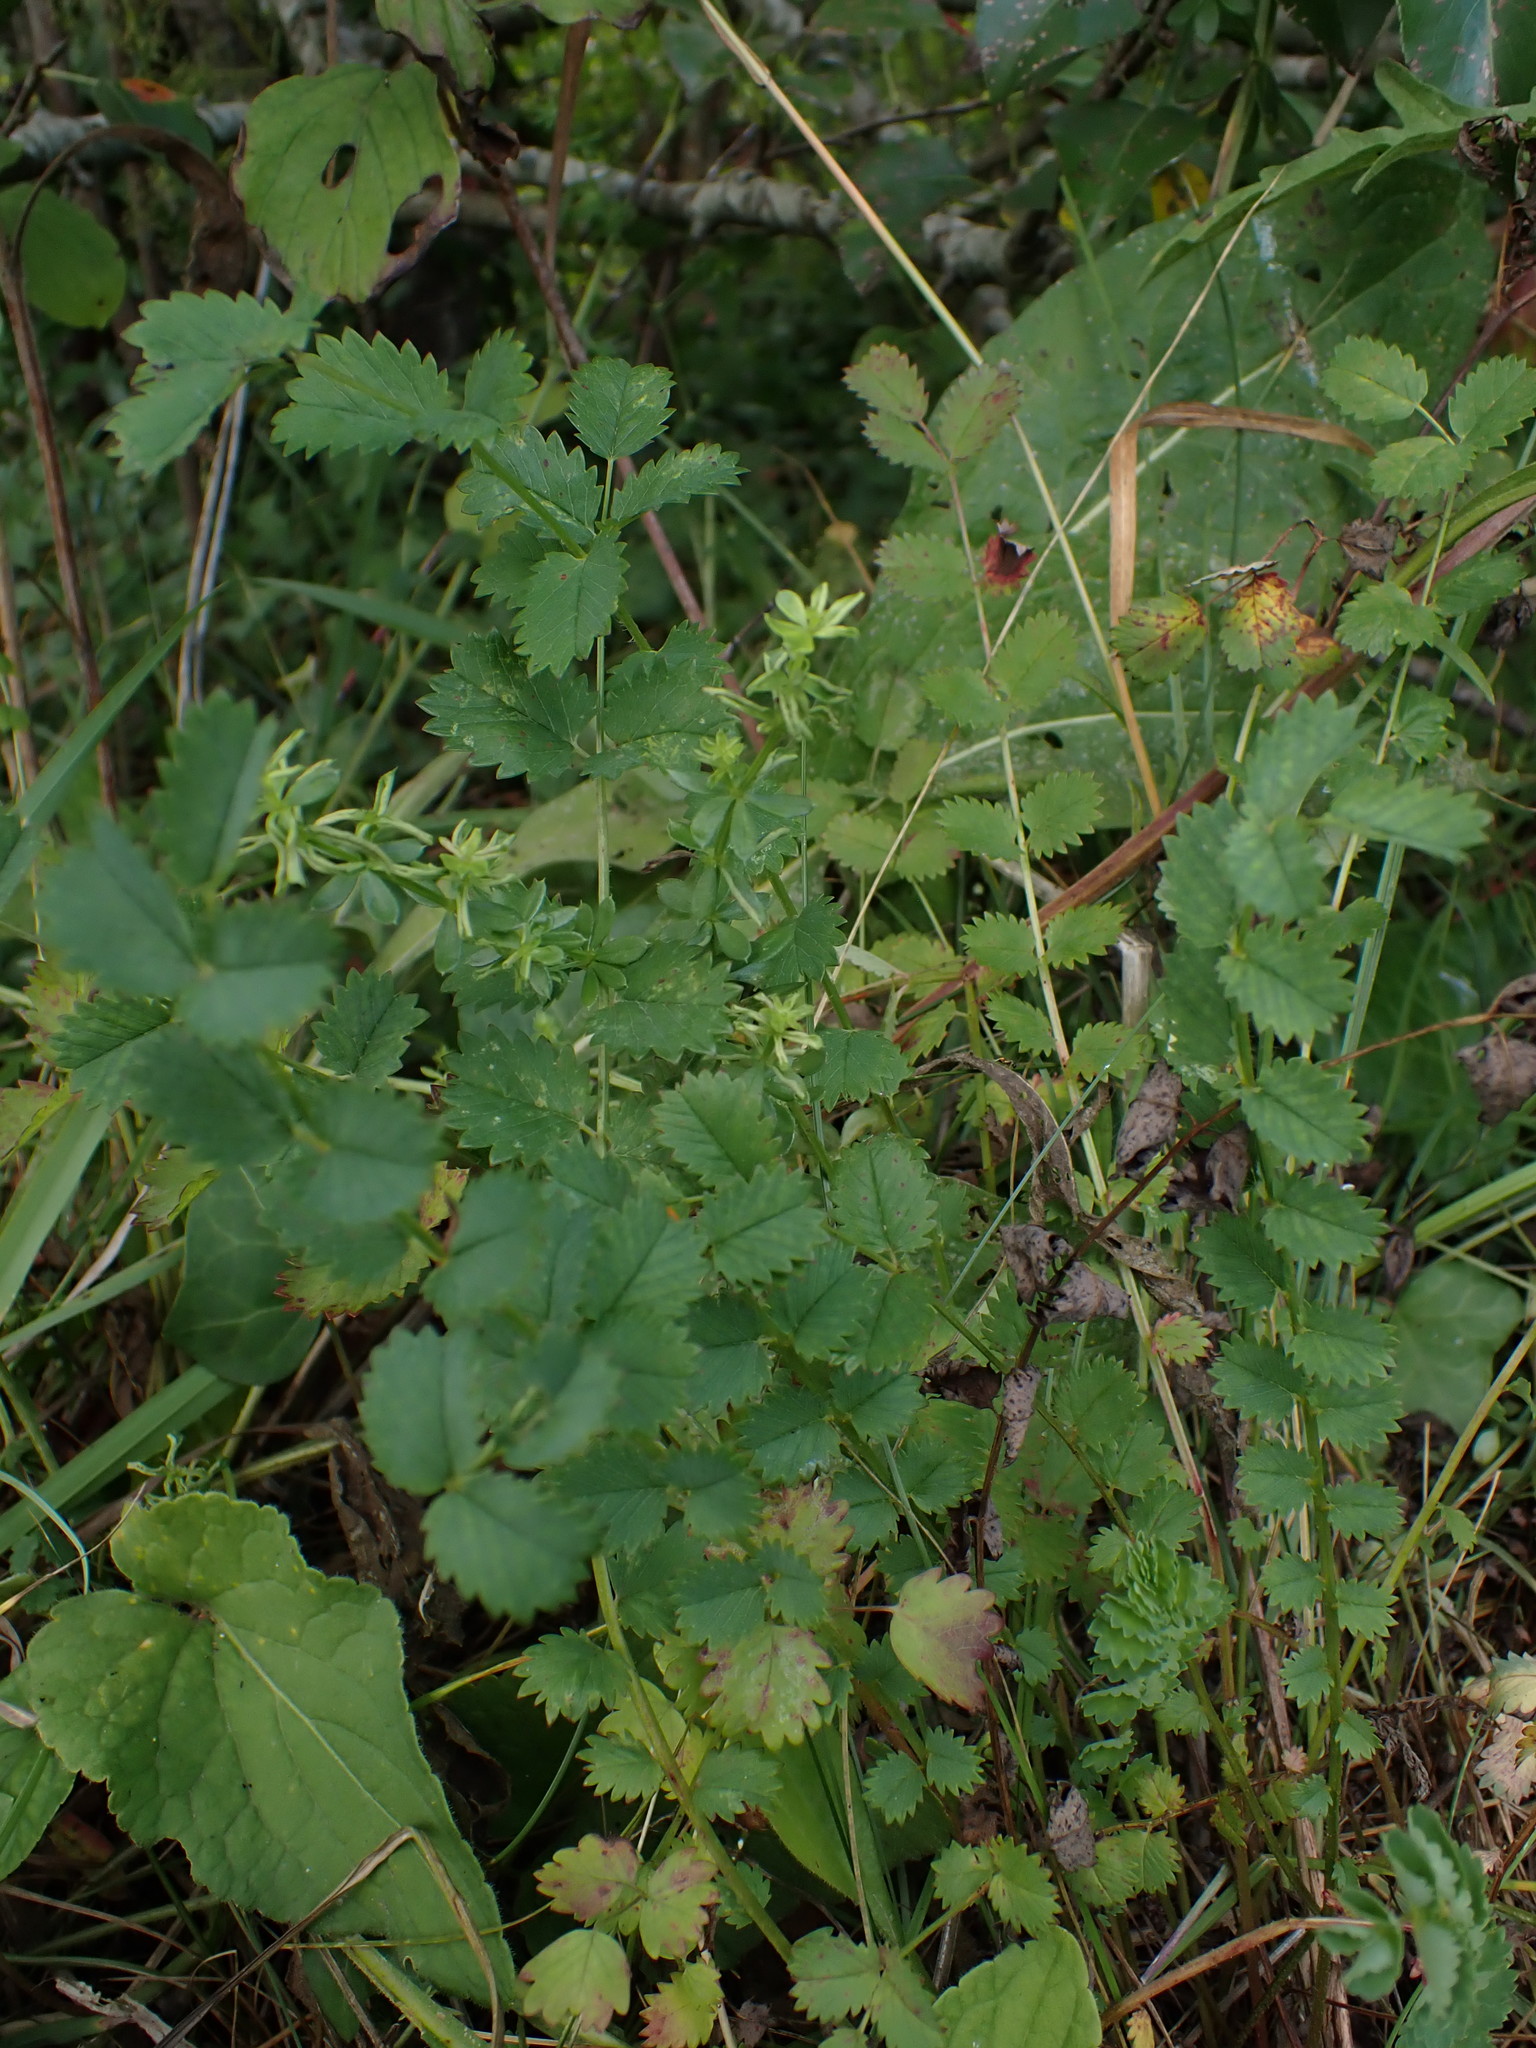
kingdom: Plantae
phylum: Tracheophyta
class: Magnoliopsida
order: Rosales
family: Rosaceae
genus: Poterium
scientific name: Poterium sanguisorba
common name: Salad burnet
